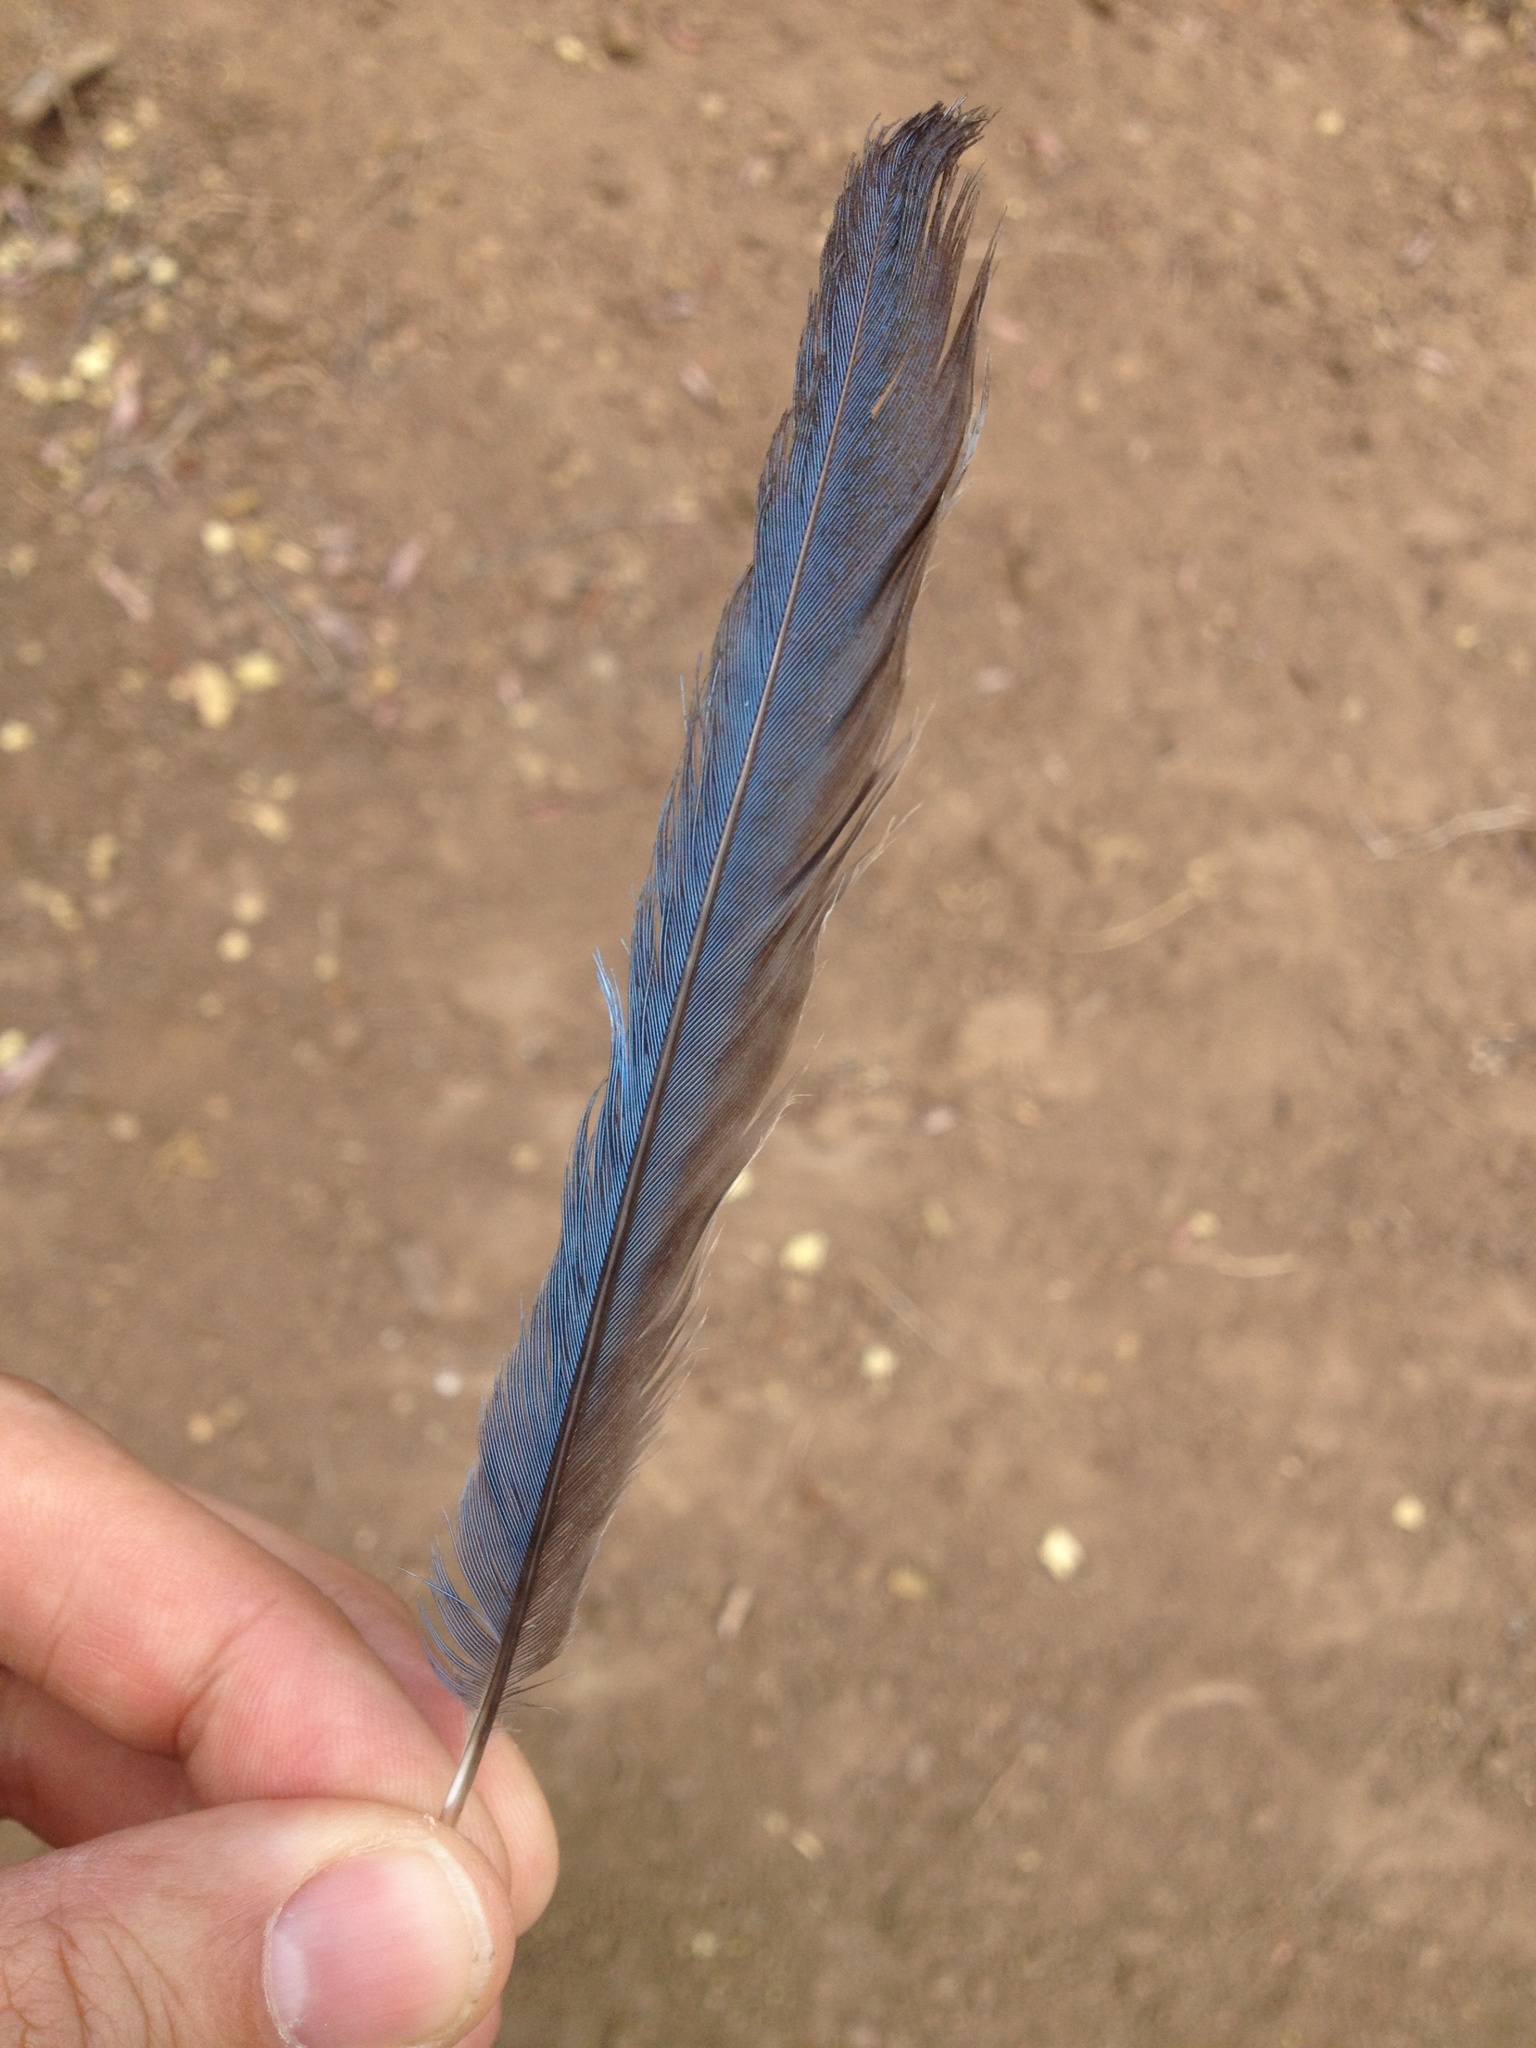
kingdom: Animalia
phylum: Chordata
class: Aves
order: Passeriformes
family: Corvidae
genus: Aphelocoma
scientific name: Aphelocoma californica
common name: California scrub-jay
